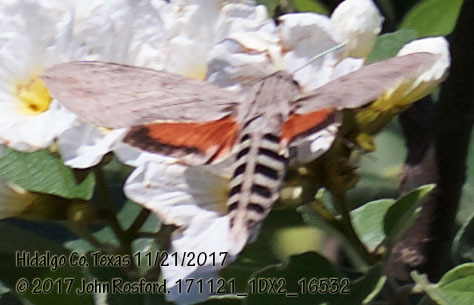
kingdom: Animalia
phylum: Arthropoda
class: Insecta
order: Lepidoptera
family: Sphingidae
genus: Erinnyis
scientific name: Erinnyis ello
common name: Ello sphinx
